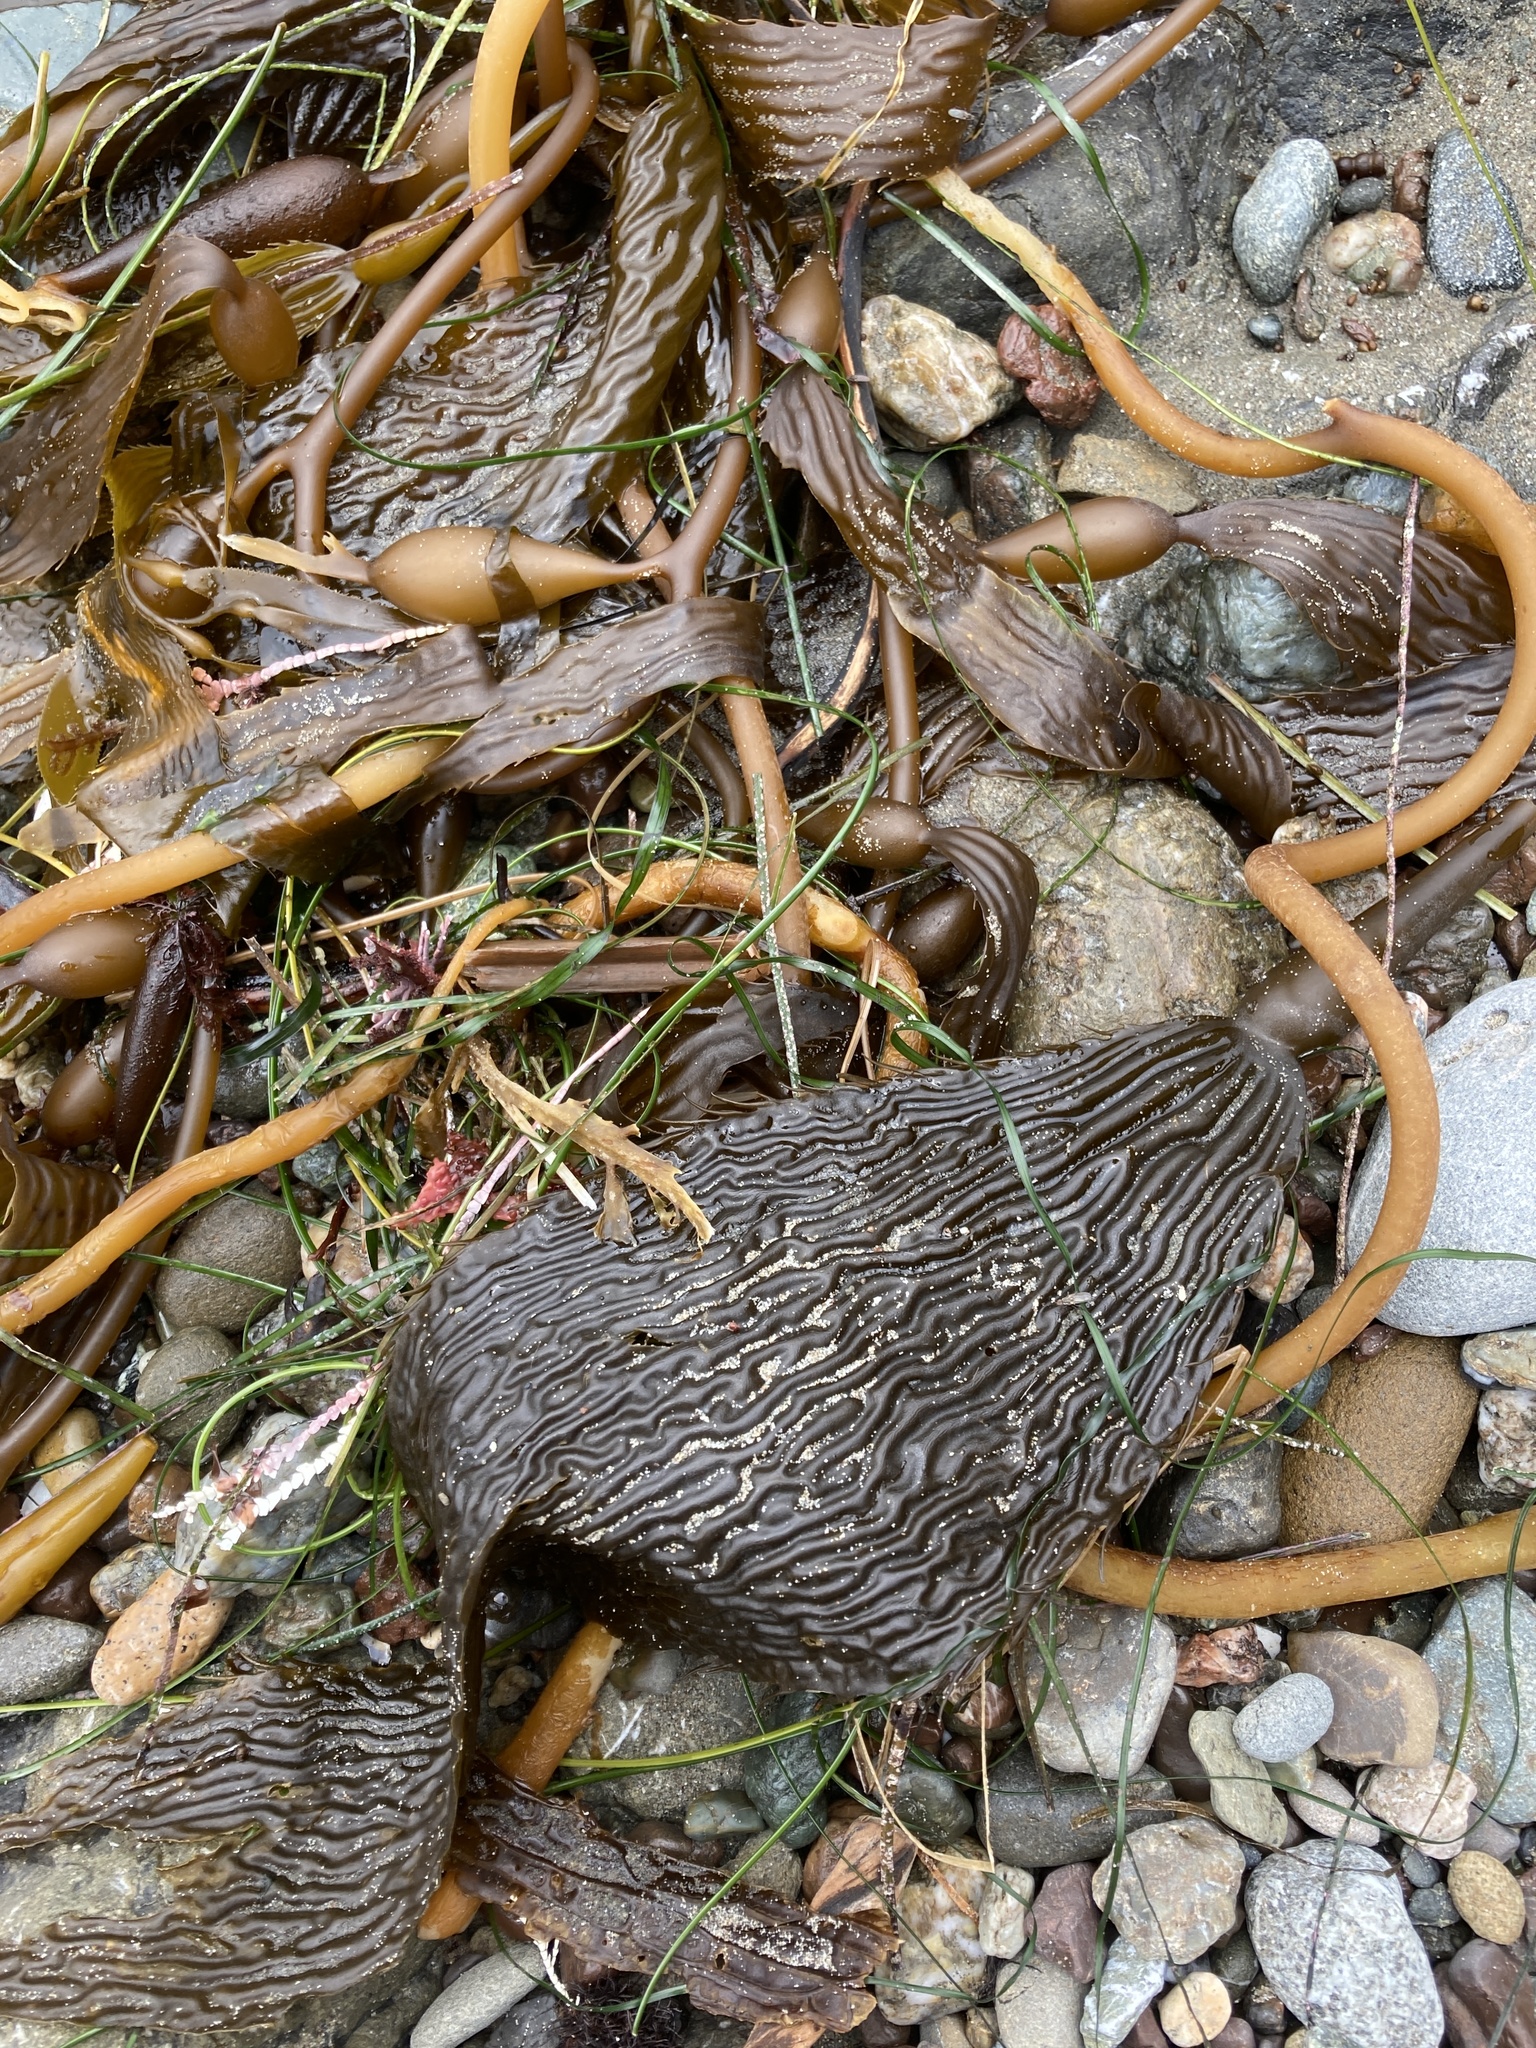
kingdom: Chromista
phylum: Ochrophyta
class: Phaeophyceae
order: Laminariales
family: Laminariaceae
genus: Macrocystis
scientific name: Macrocystis pyrifera
